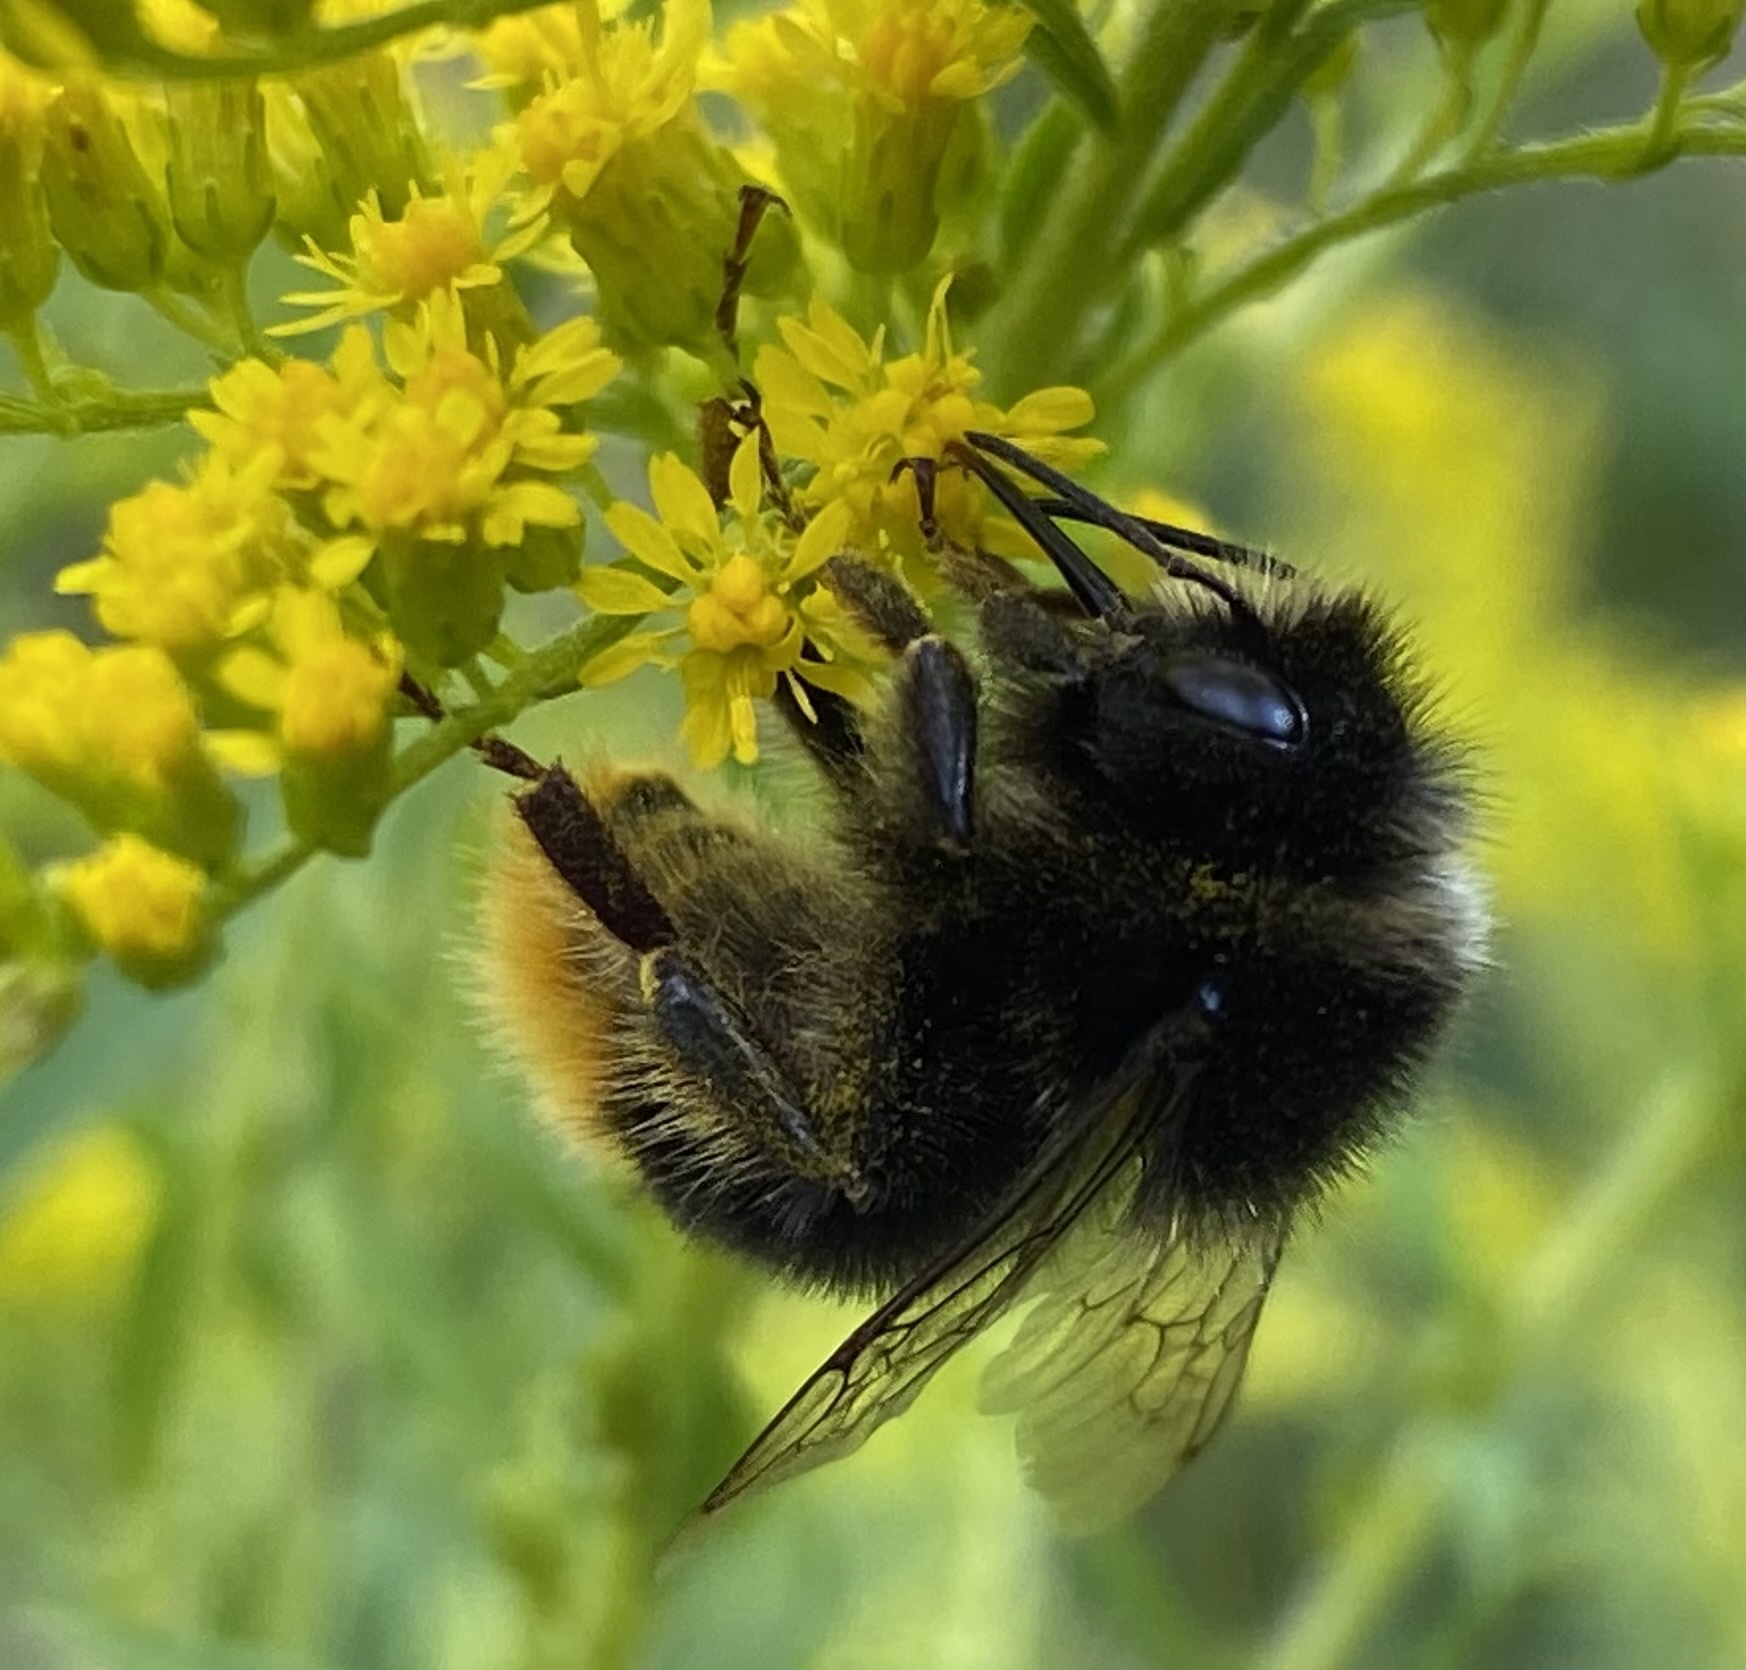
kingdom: Animalia
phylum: Arthropoda
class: Insecta
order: Hymenoptera
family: Apidae
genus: Bombus
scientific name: Bombus lapidarius
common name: Large red-tailed humble-bee
